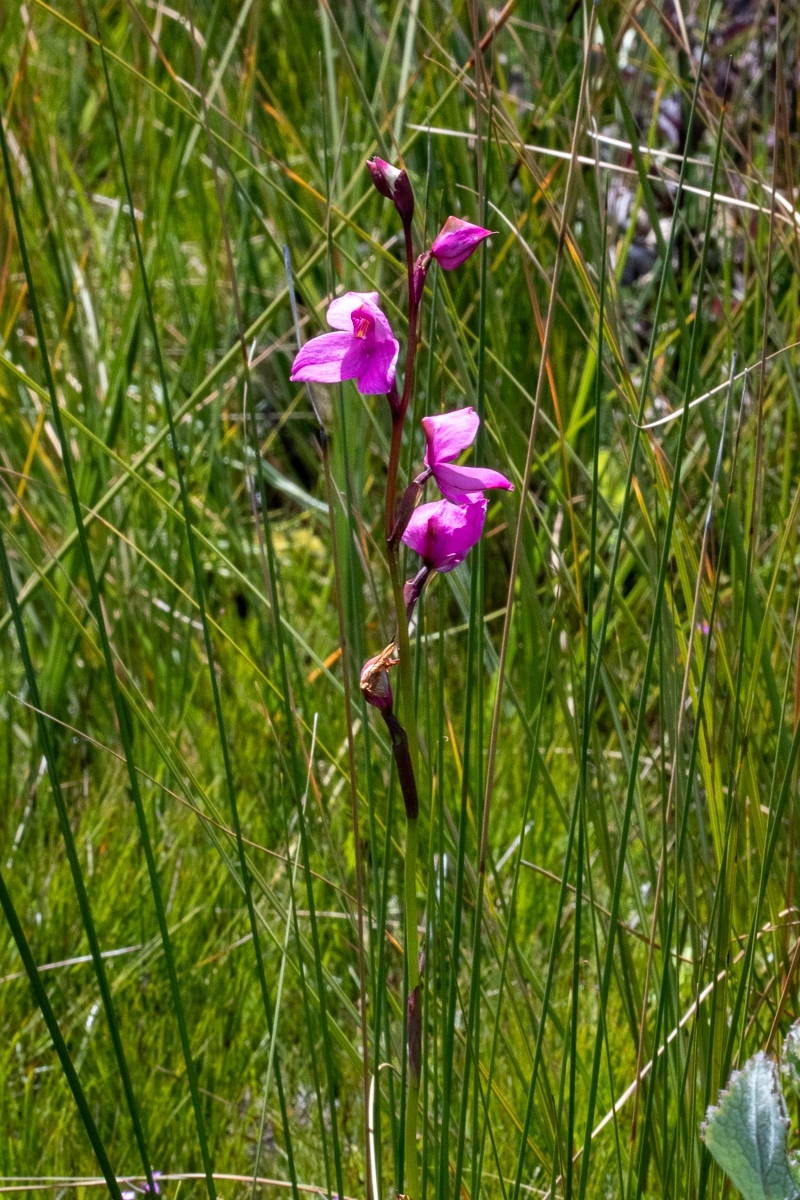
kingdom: Plantae
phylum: Tracheophyta
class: Liliopsida
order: Asparagales
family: Orchidaceae
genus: Disa
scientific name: Disa racemosa
